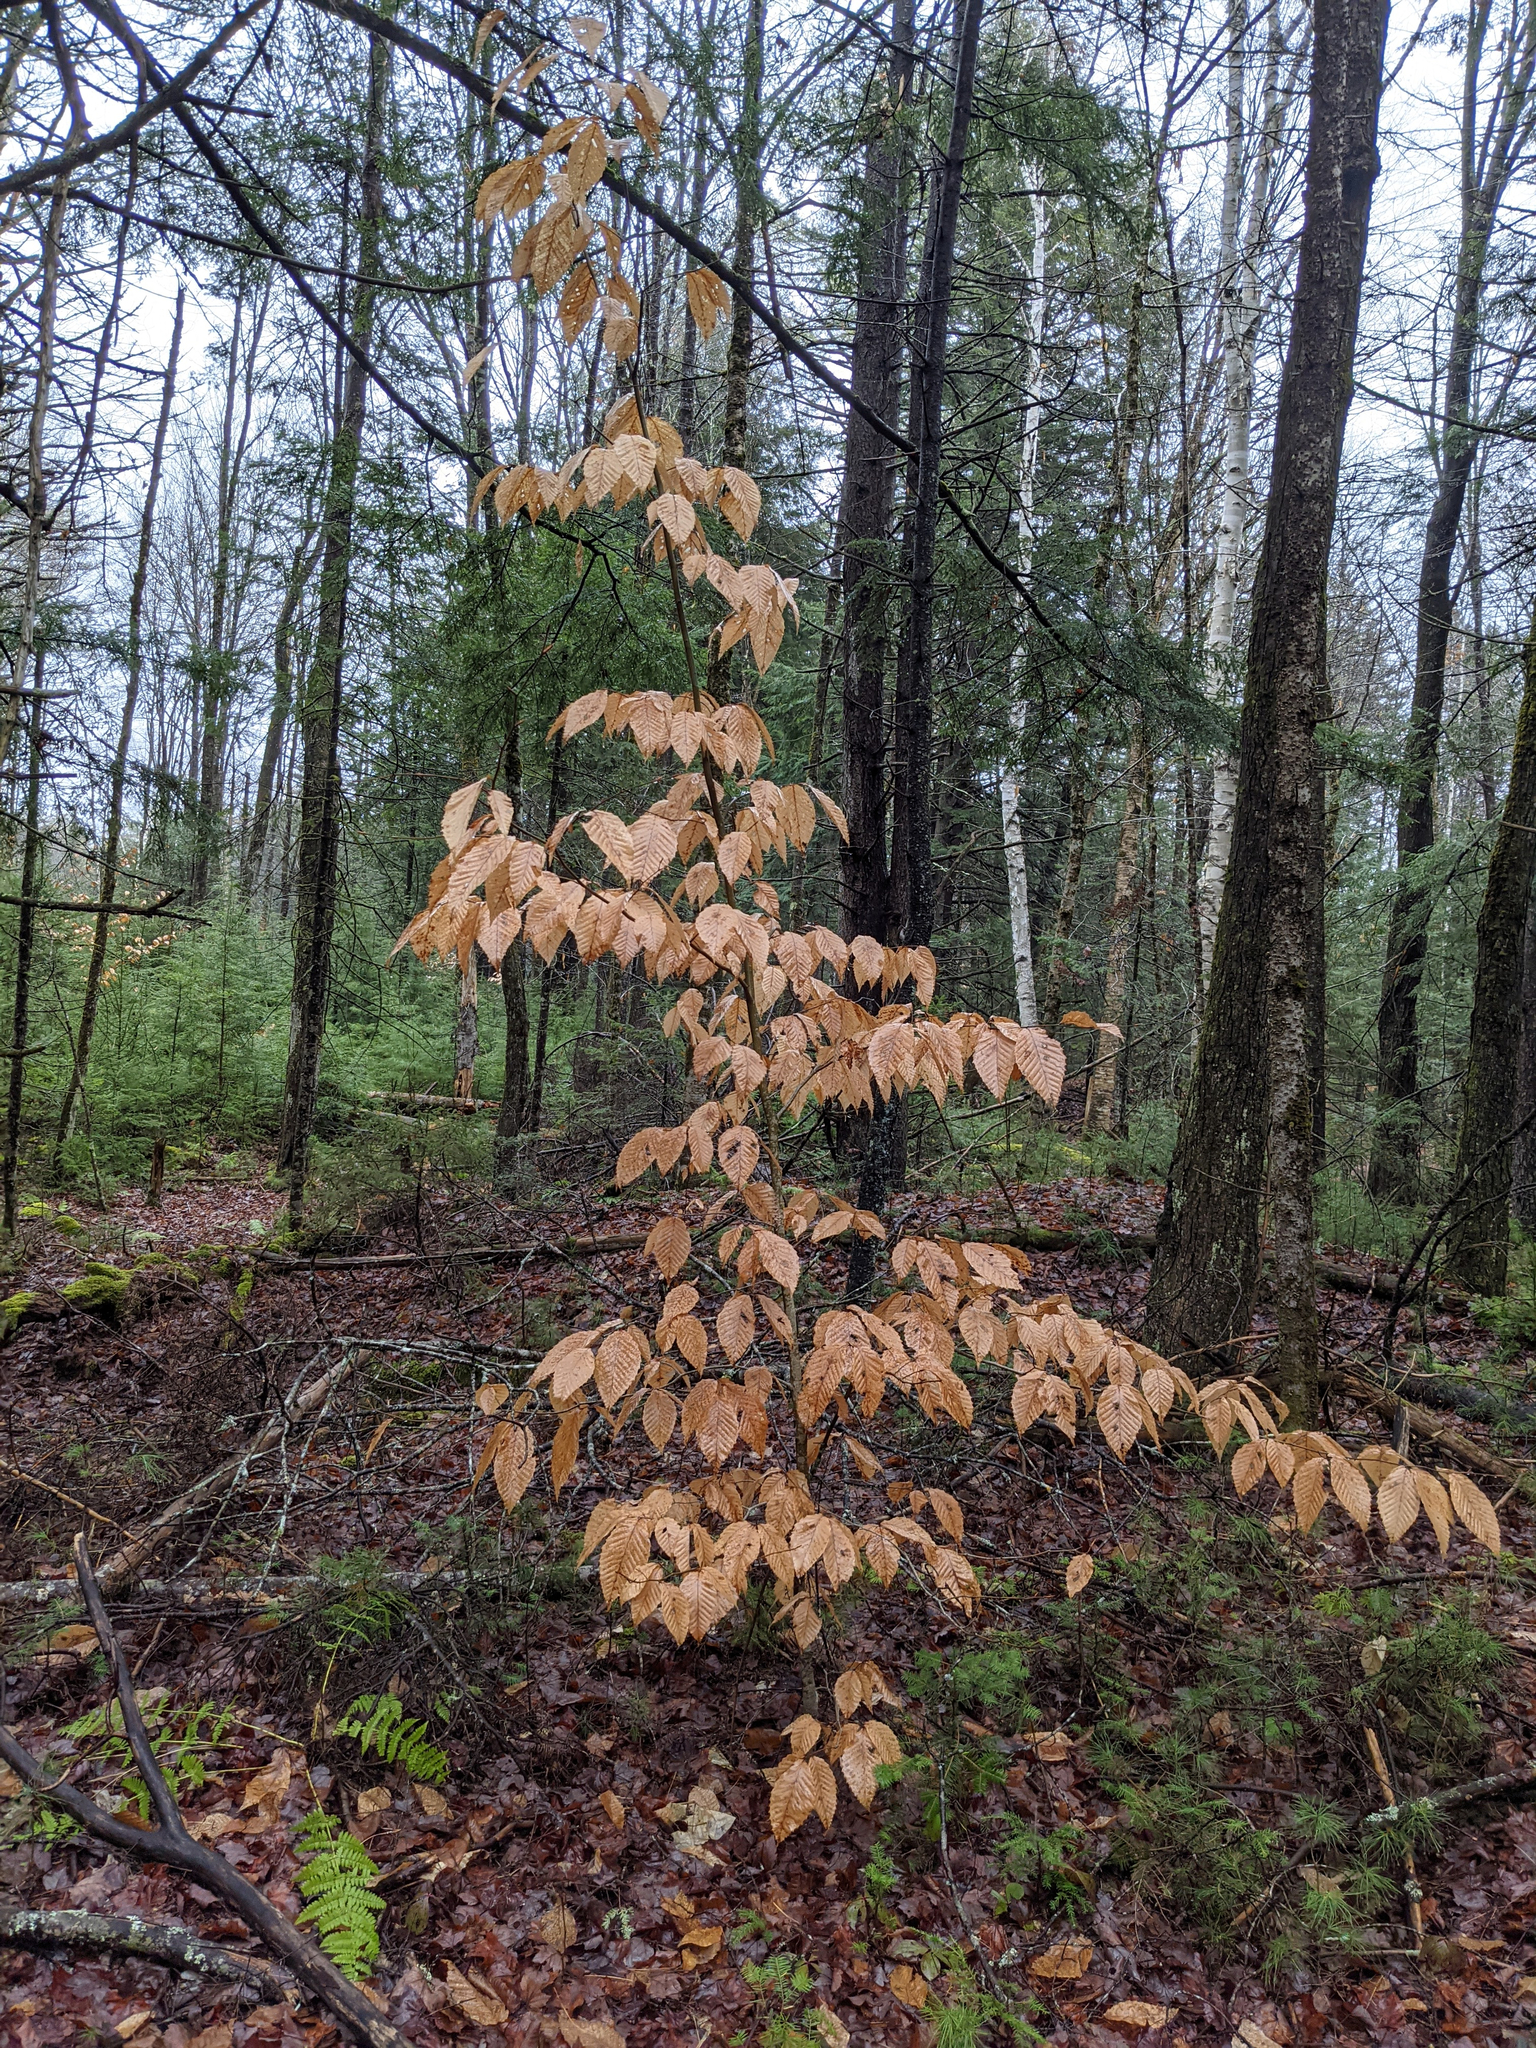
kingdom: Plantae
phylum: Tracheophyta
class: Magnoliopsida
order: Fagales
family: Fagaceae
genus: Fagus
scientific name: Fagus grandifolia
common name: American beech
